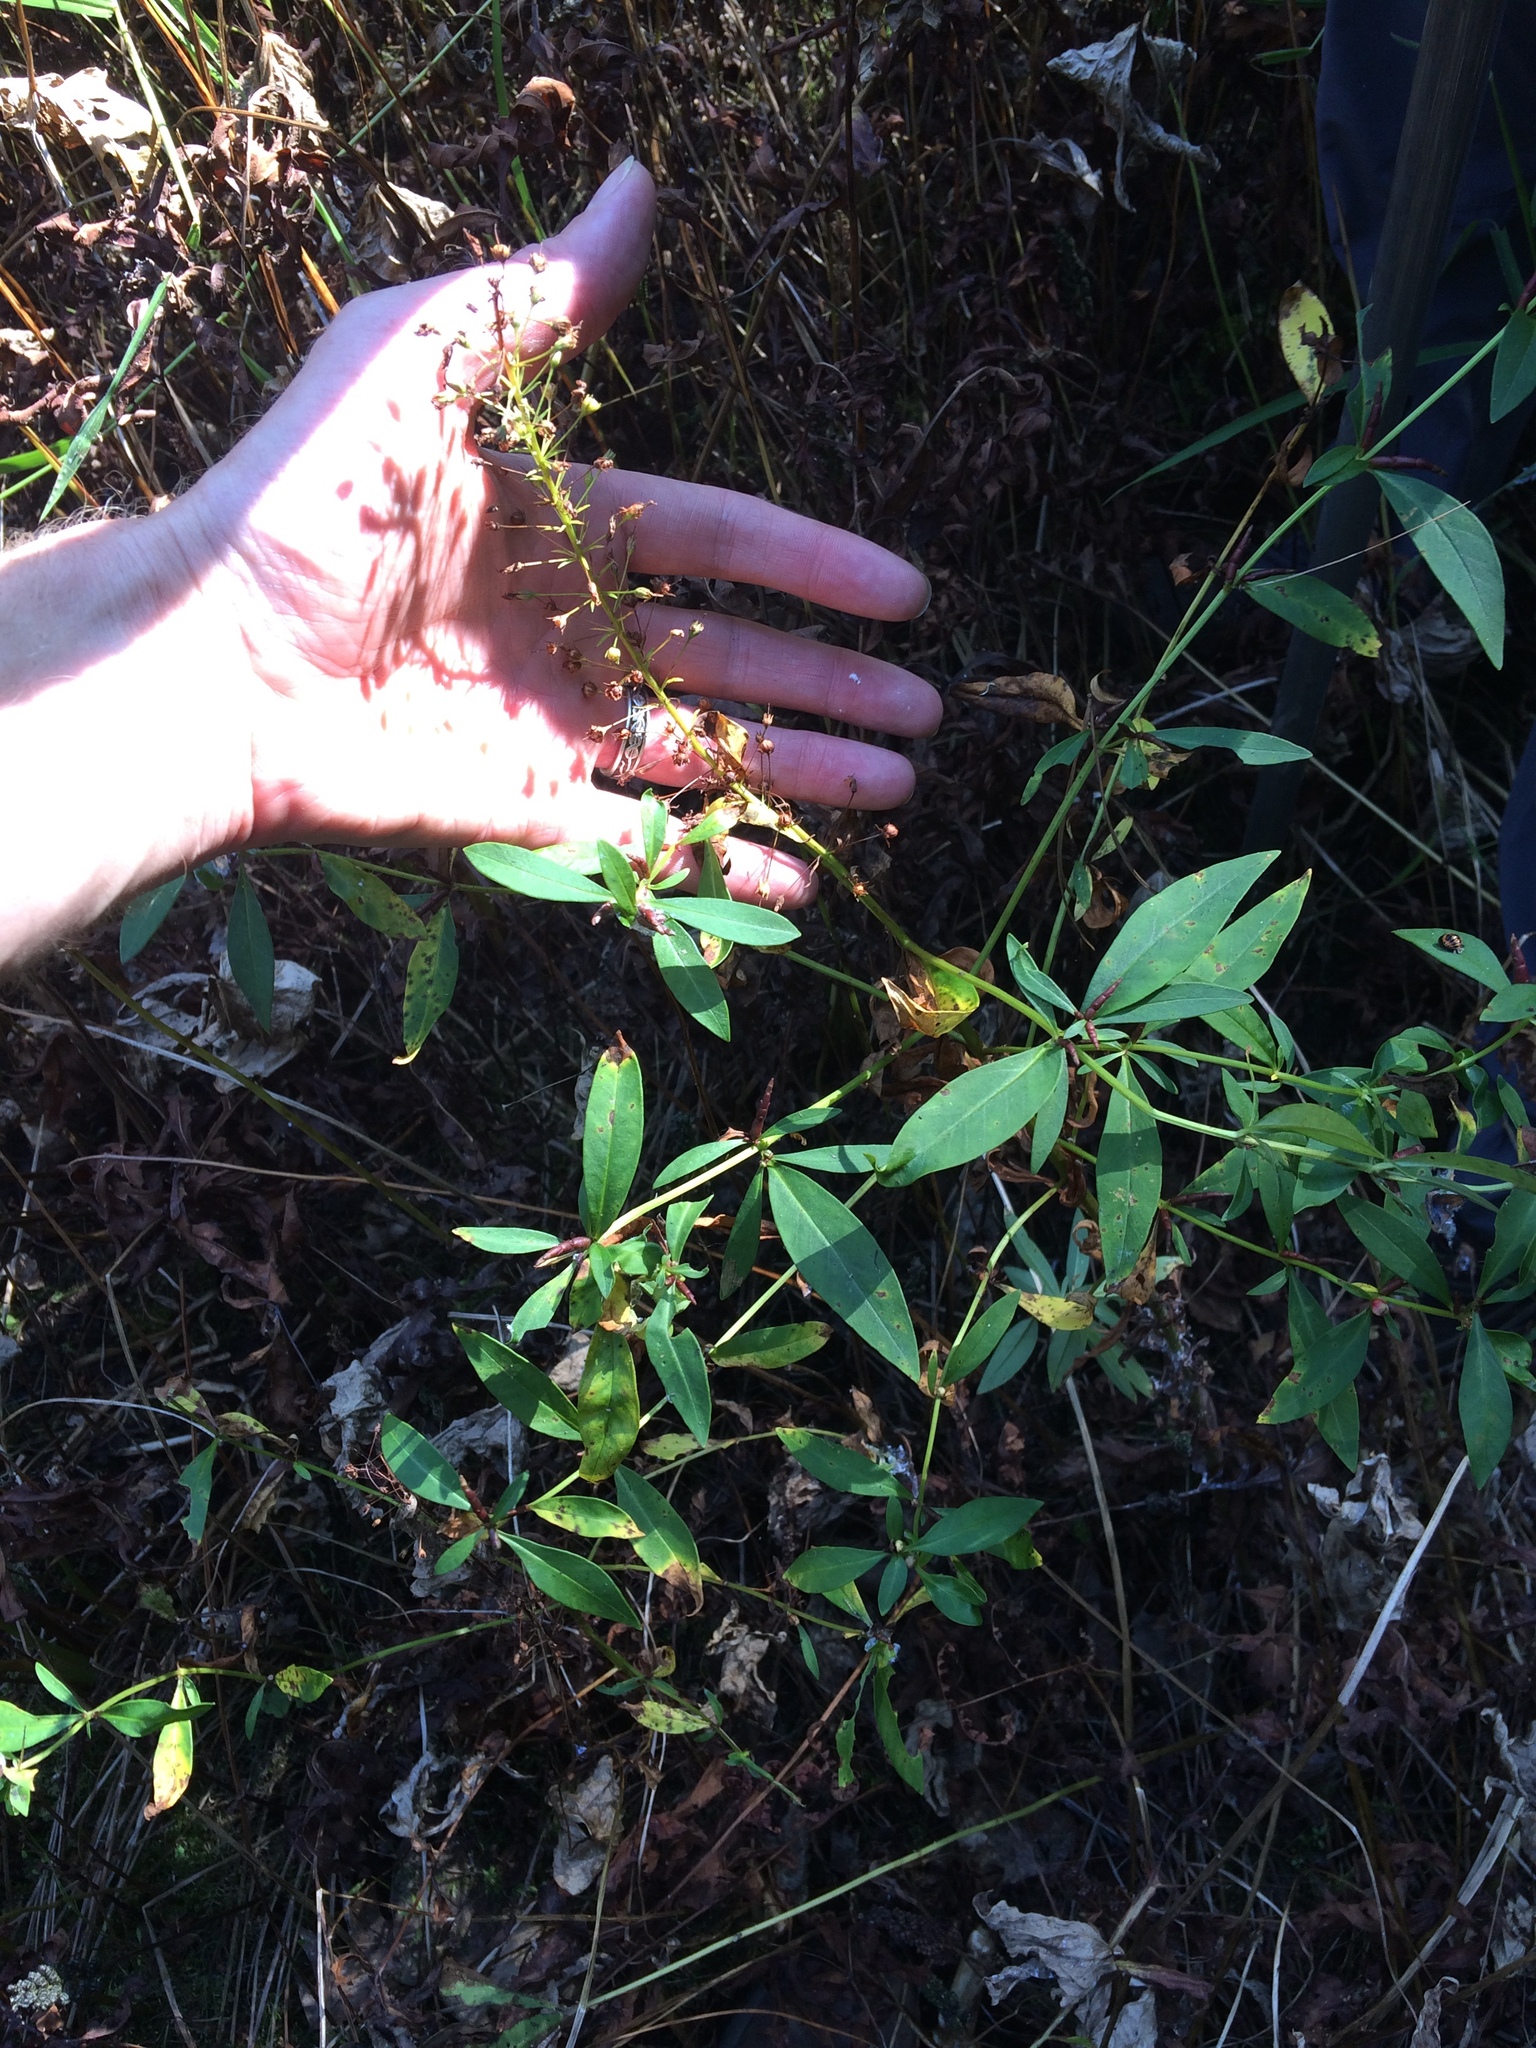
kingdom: Plantae
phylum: Tracheophyta
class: Magnoliopsida
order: Ericales
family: Primulaceae
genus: Lysimachia
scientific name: Lysimachia terrestris
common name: Lake loosestrife
